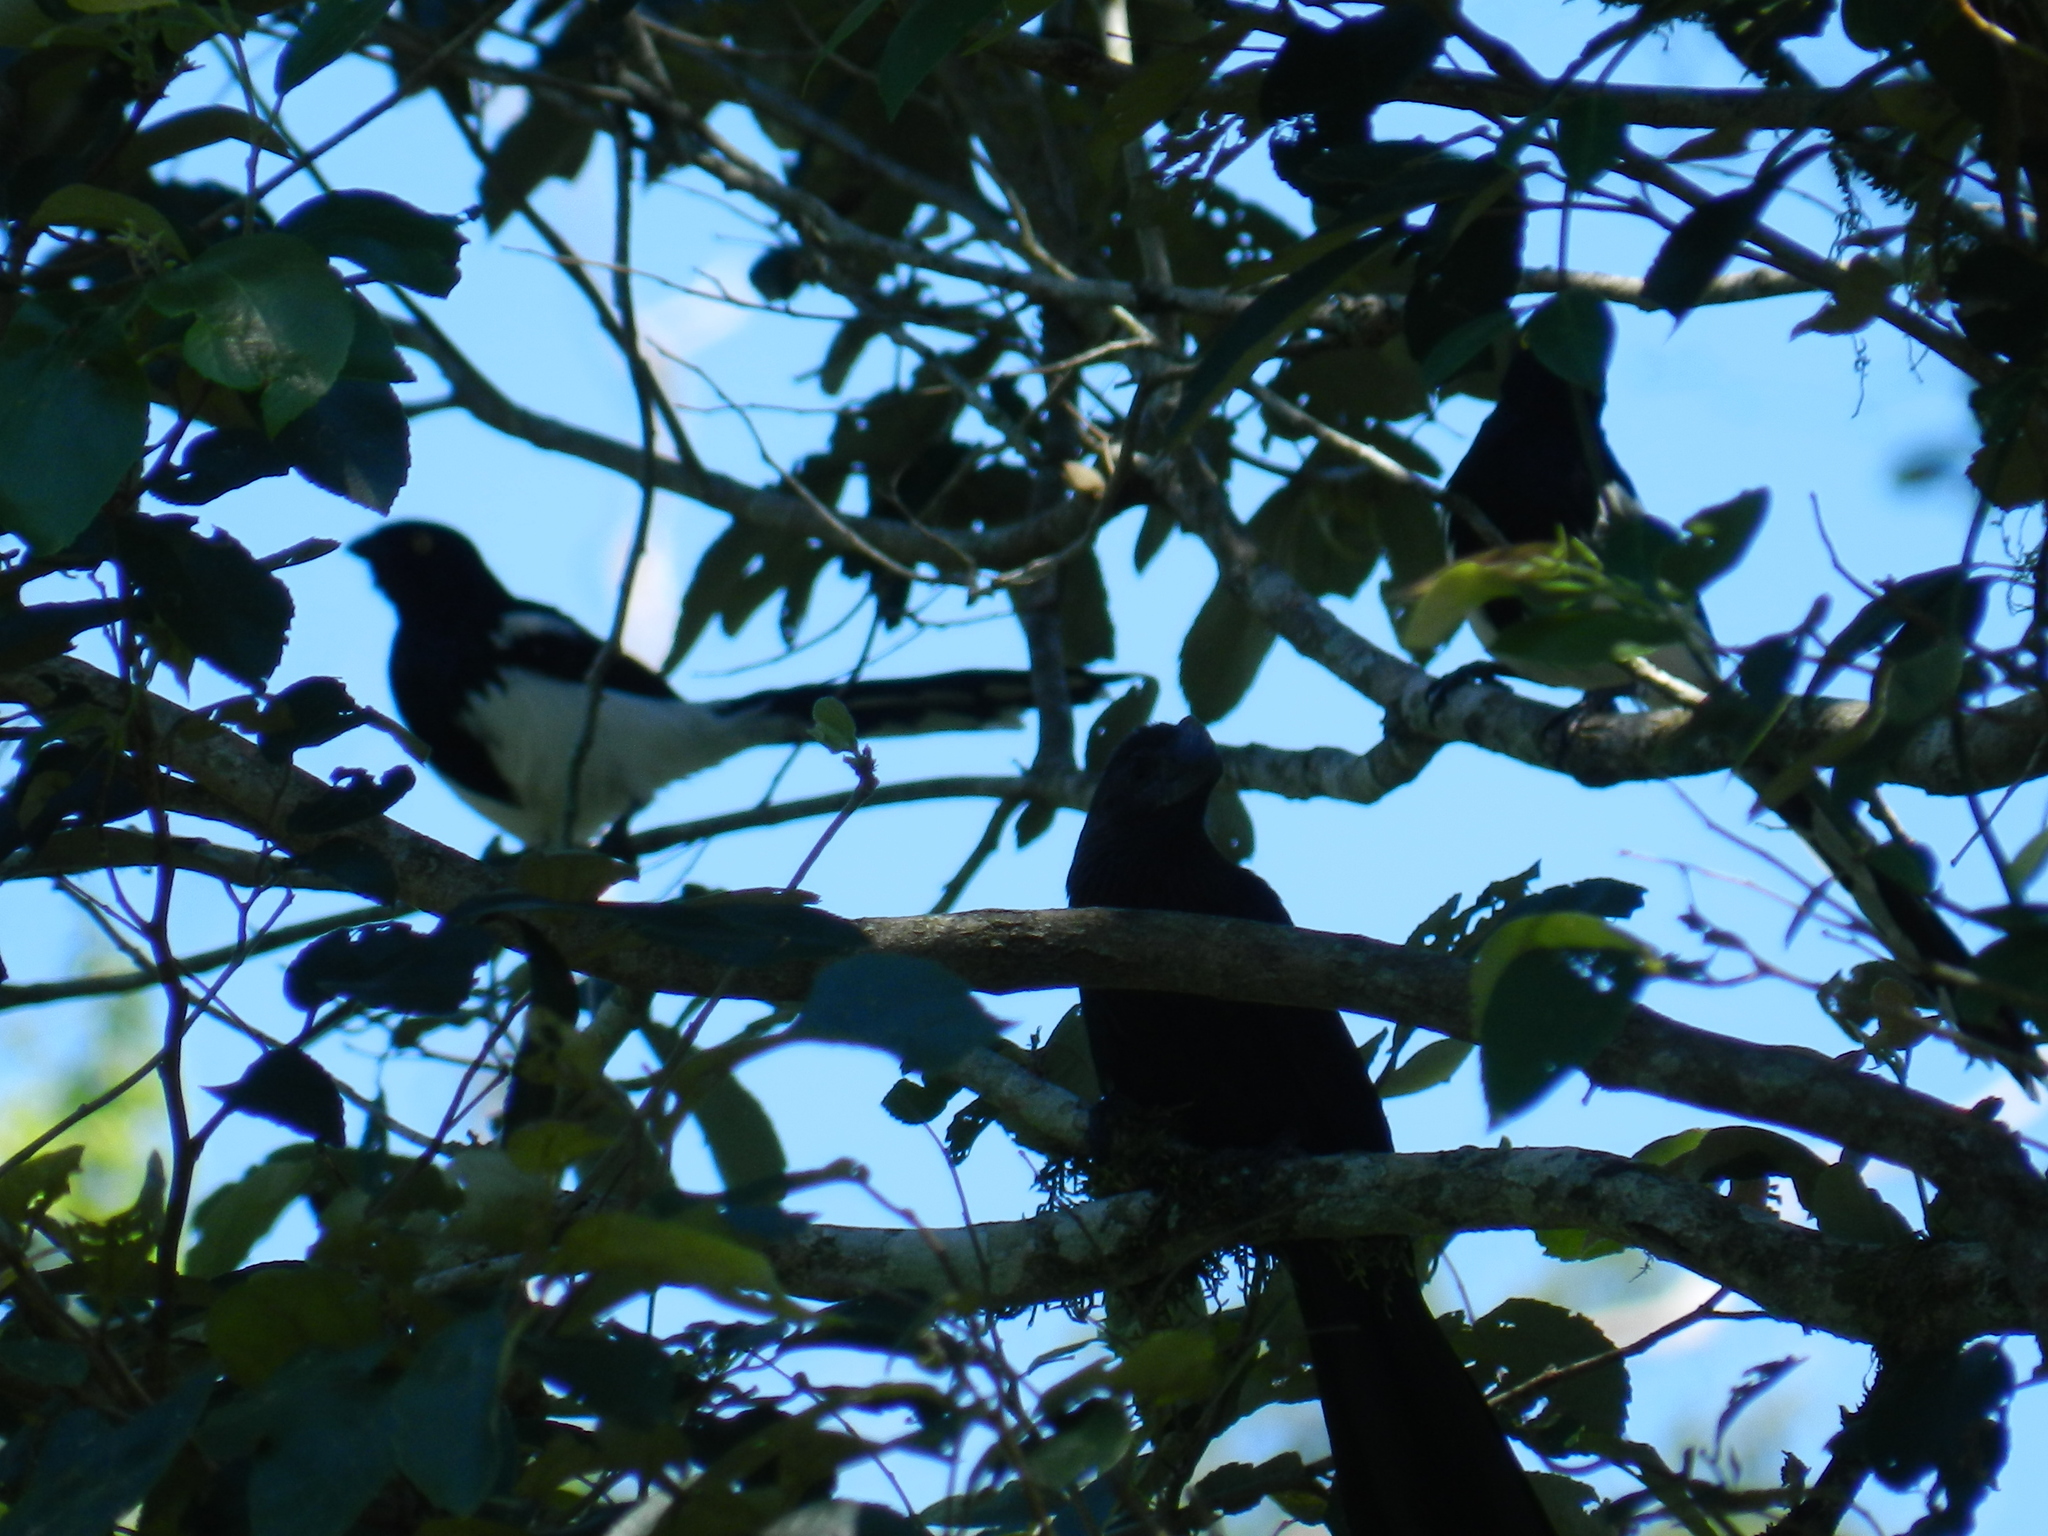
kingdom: Animalia
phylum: Chordata
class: Aves
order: Passeriformes
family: Thraupidae
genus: Cissopis
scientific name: Cissopis leverianus
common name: Magpie tanager
